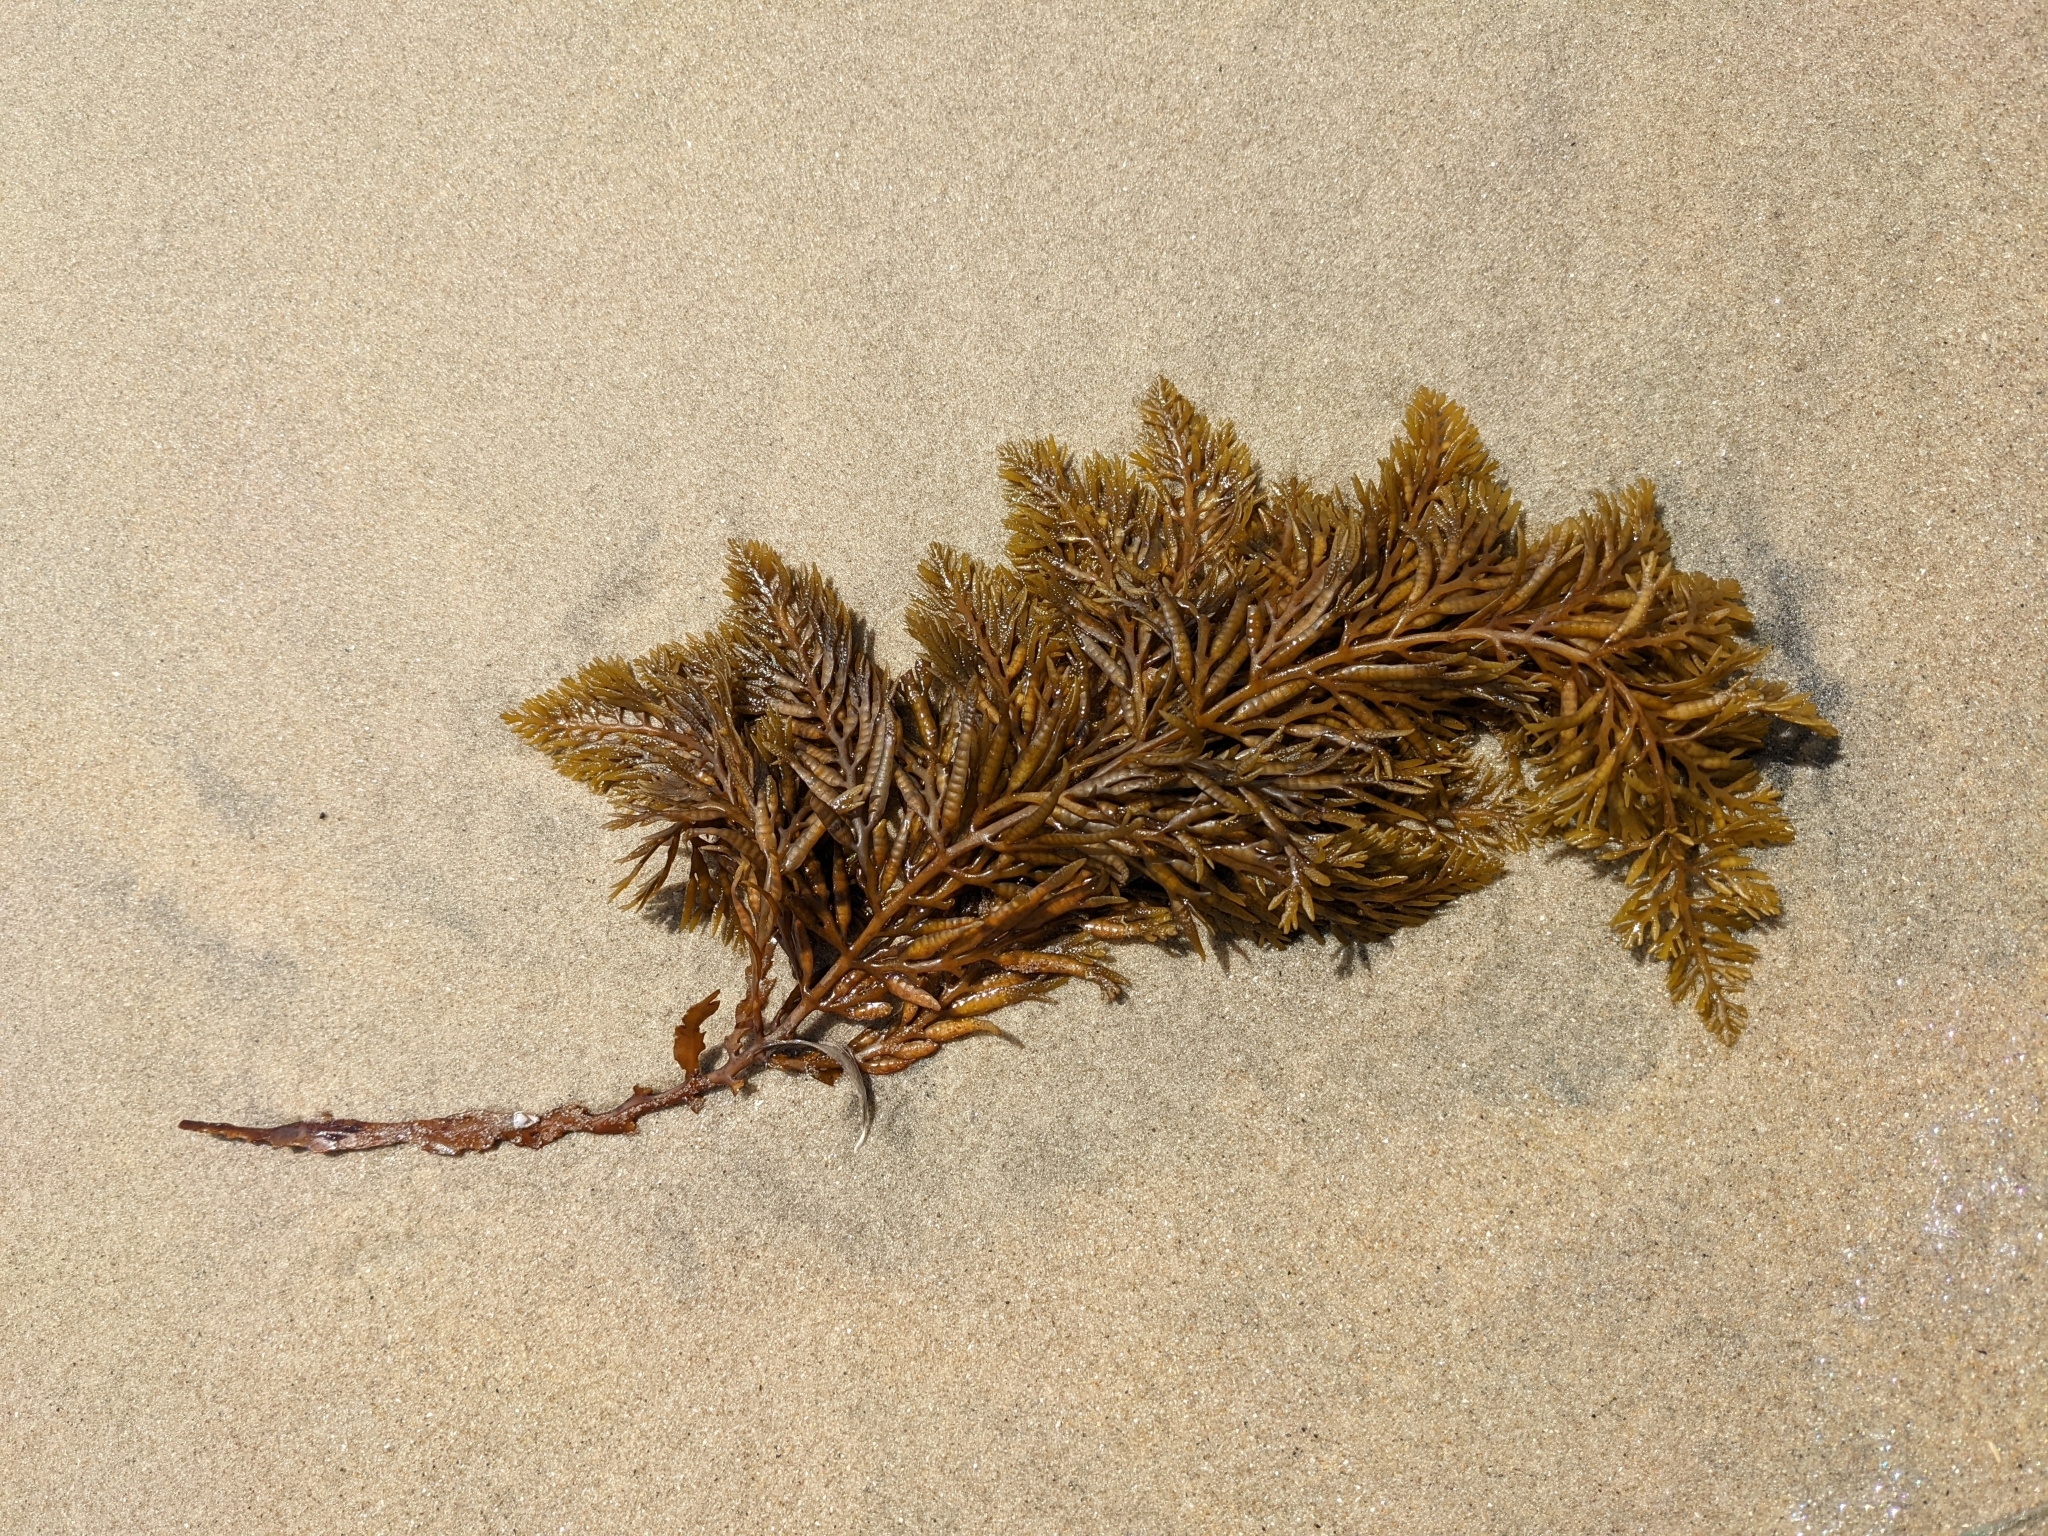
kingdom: Chromista
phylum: Ochrophyta
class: Phaeophyceae
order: Fucales
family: Sargassaceae
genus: Stephanocystis
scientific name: Stephanocystis
